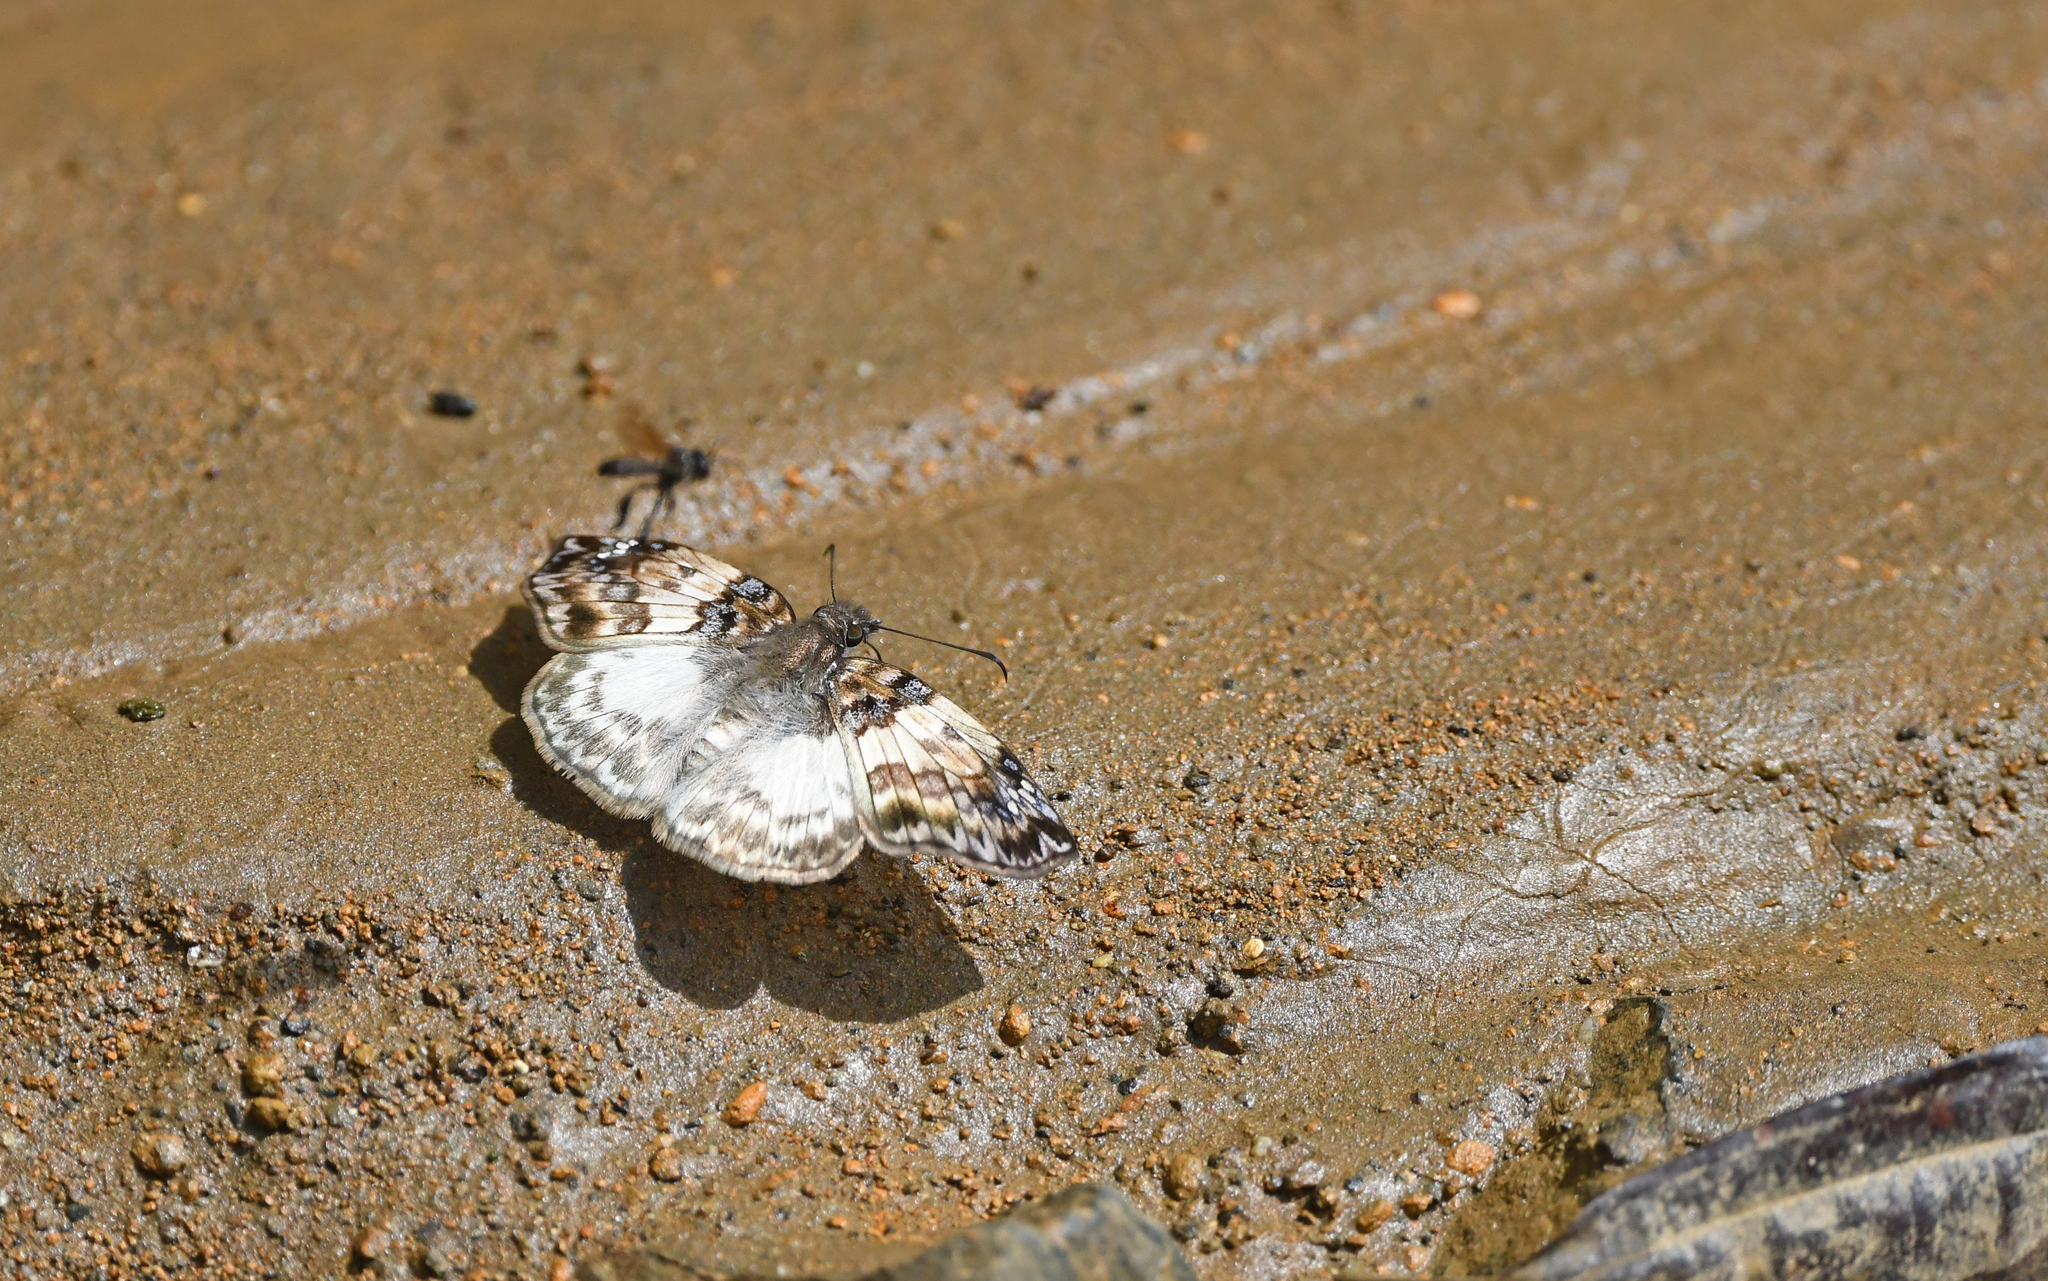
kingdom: Animalia
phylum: Arthropoda
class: Insecta
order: Lepidoptera
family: Hesperiidae
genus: Mylon
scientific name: Mylon illineatus
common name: Illineatus mylon
